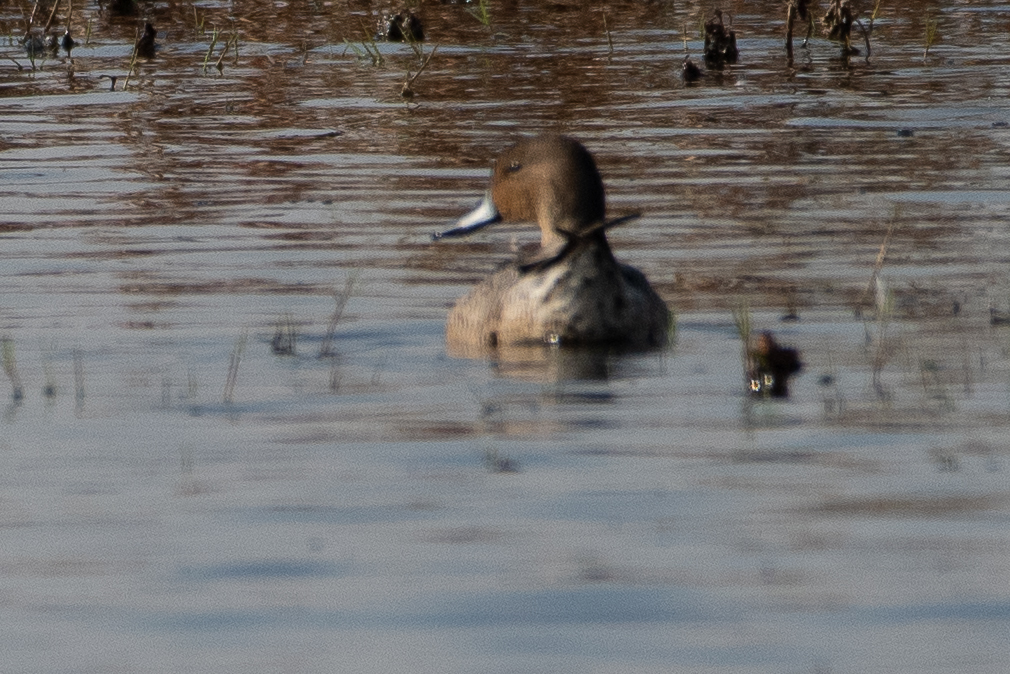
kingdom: Animalia
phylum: Chordata
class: Aves
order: Anseriformes
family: Anatidae
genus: Anas
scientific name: Anas acuta
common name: Northern pintail
